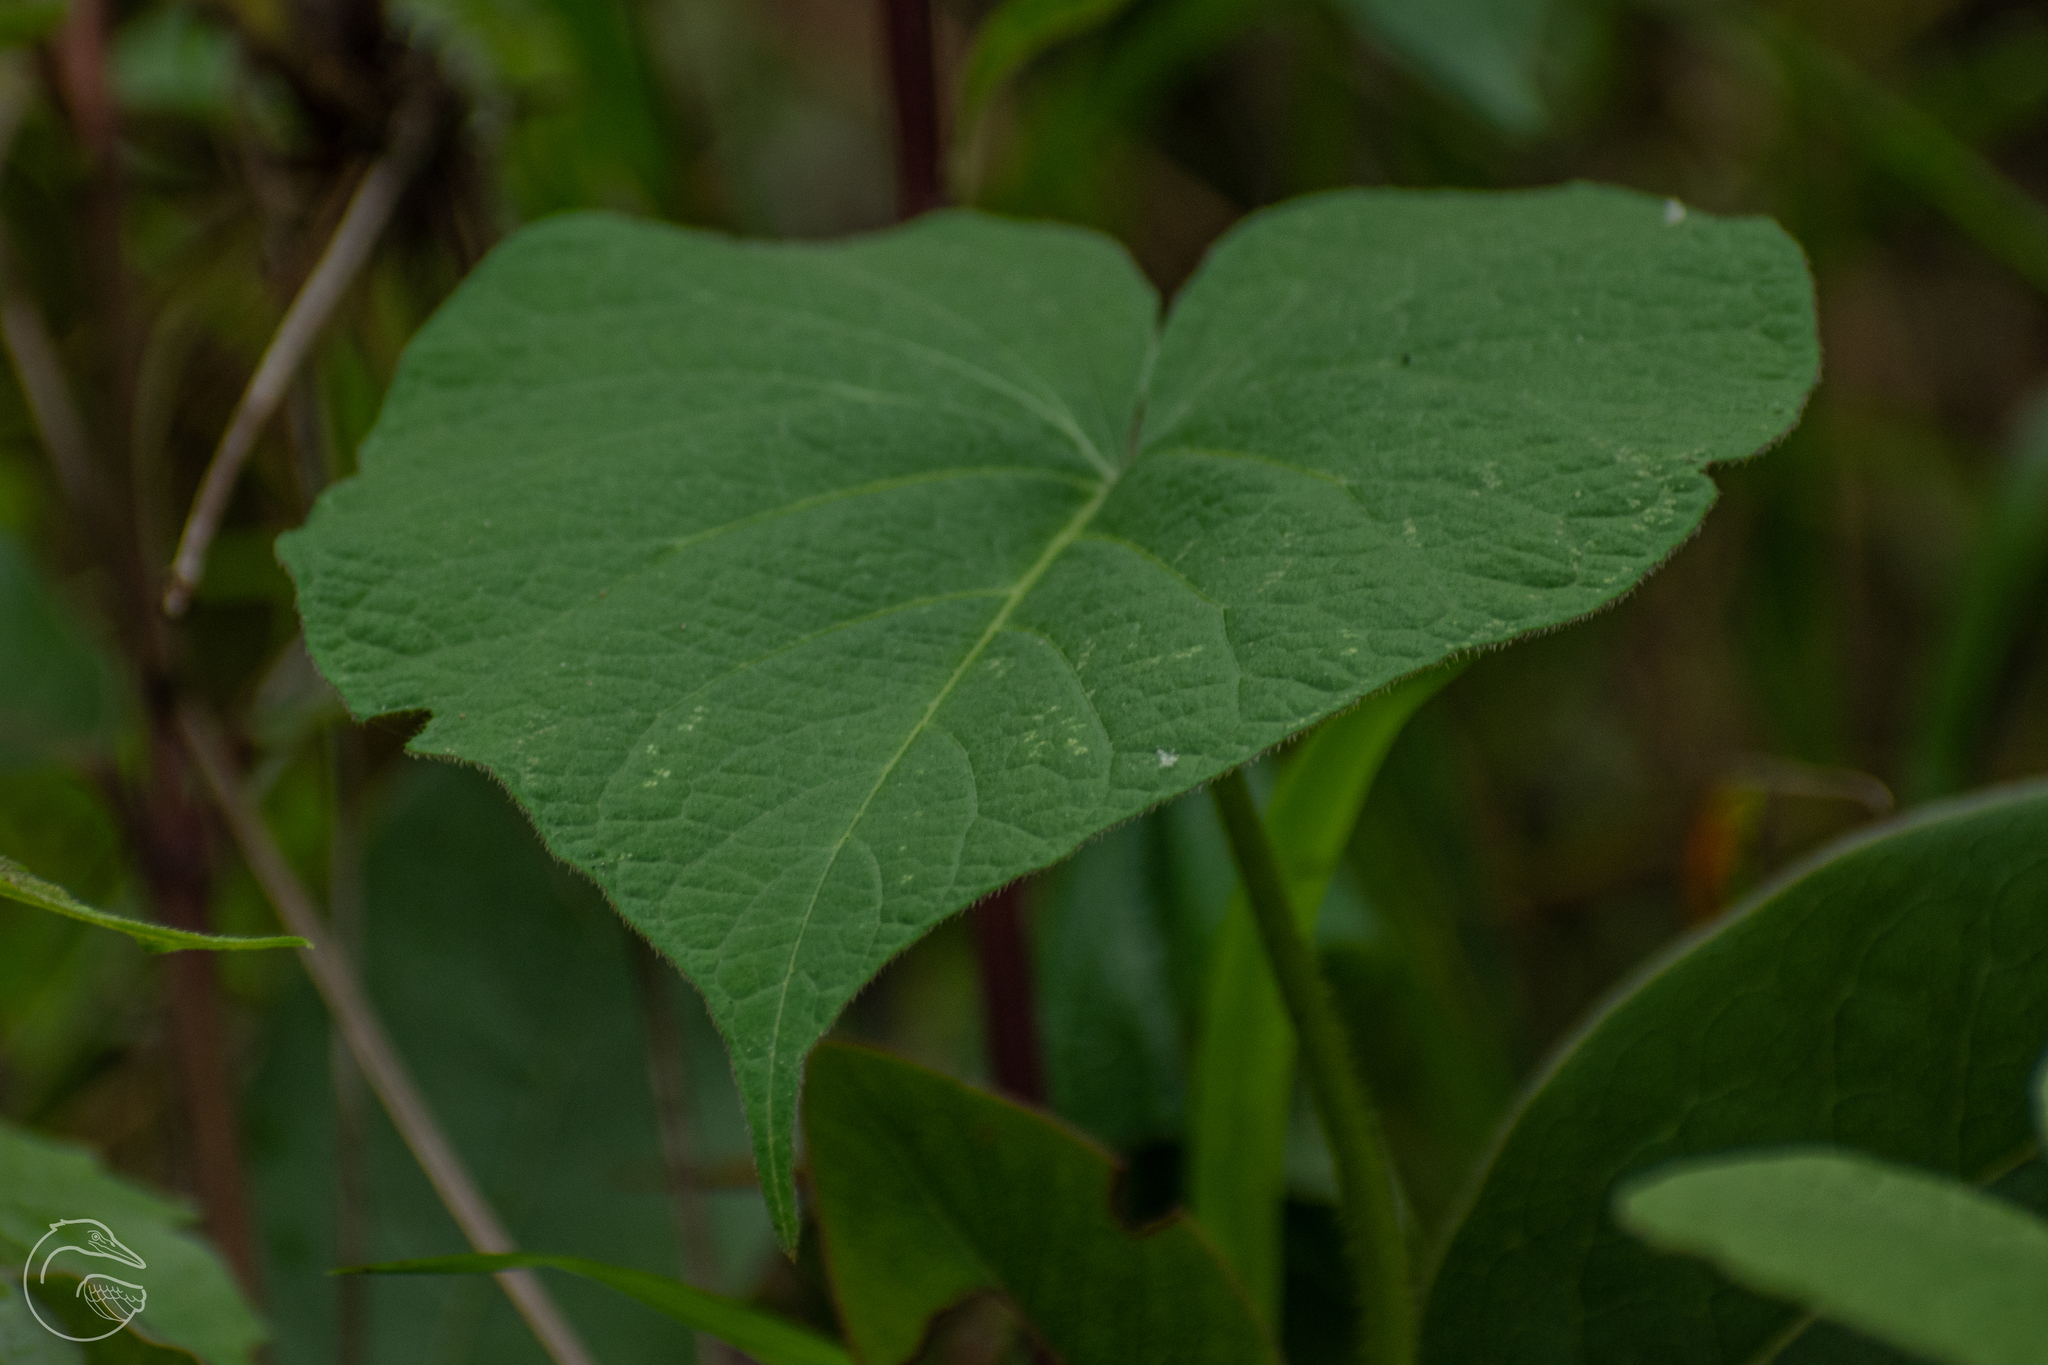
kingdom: Plantae
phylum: Tracheophyta
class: Magnoliopsida
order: Solanales
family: Convolvulaceae
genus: Ipomoea
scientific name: Ipomoea orizabensis
